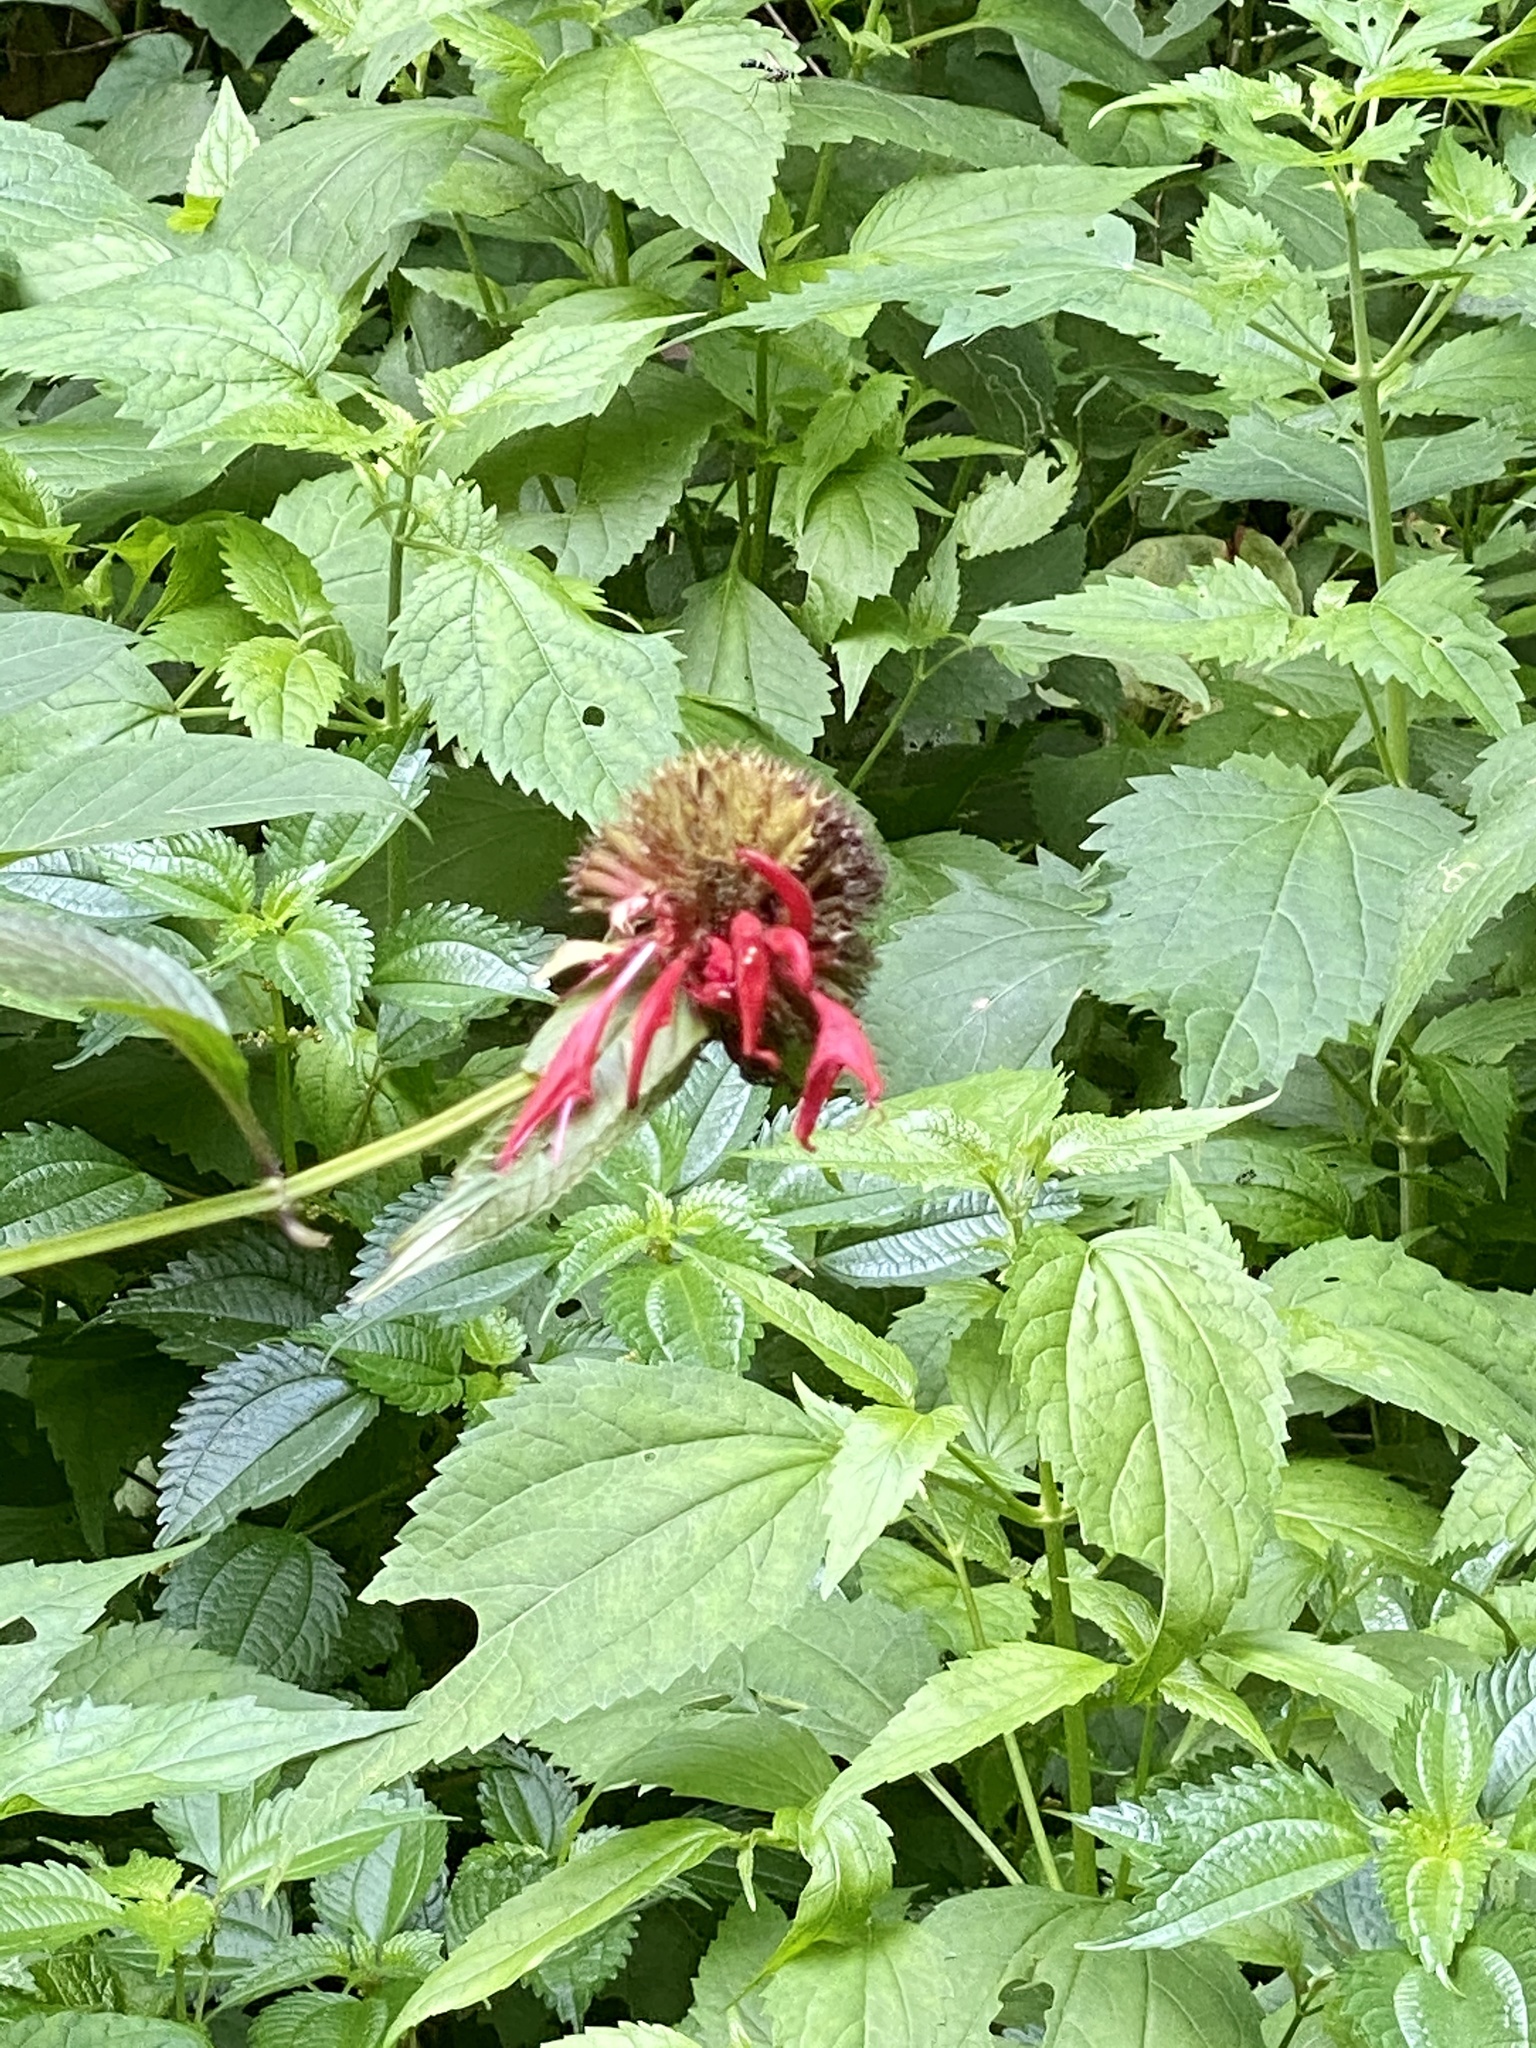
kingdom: Plantae
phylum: Tracheophyta
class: Magnoliopsida
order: Lamiales
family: Lamiaceae
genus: Monarda
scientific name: Monarda didyma
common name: Beebalm
